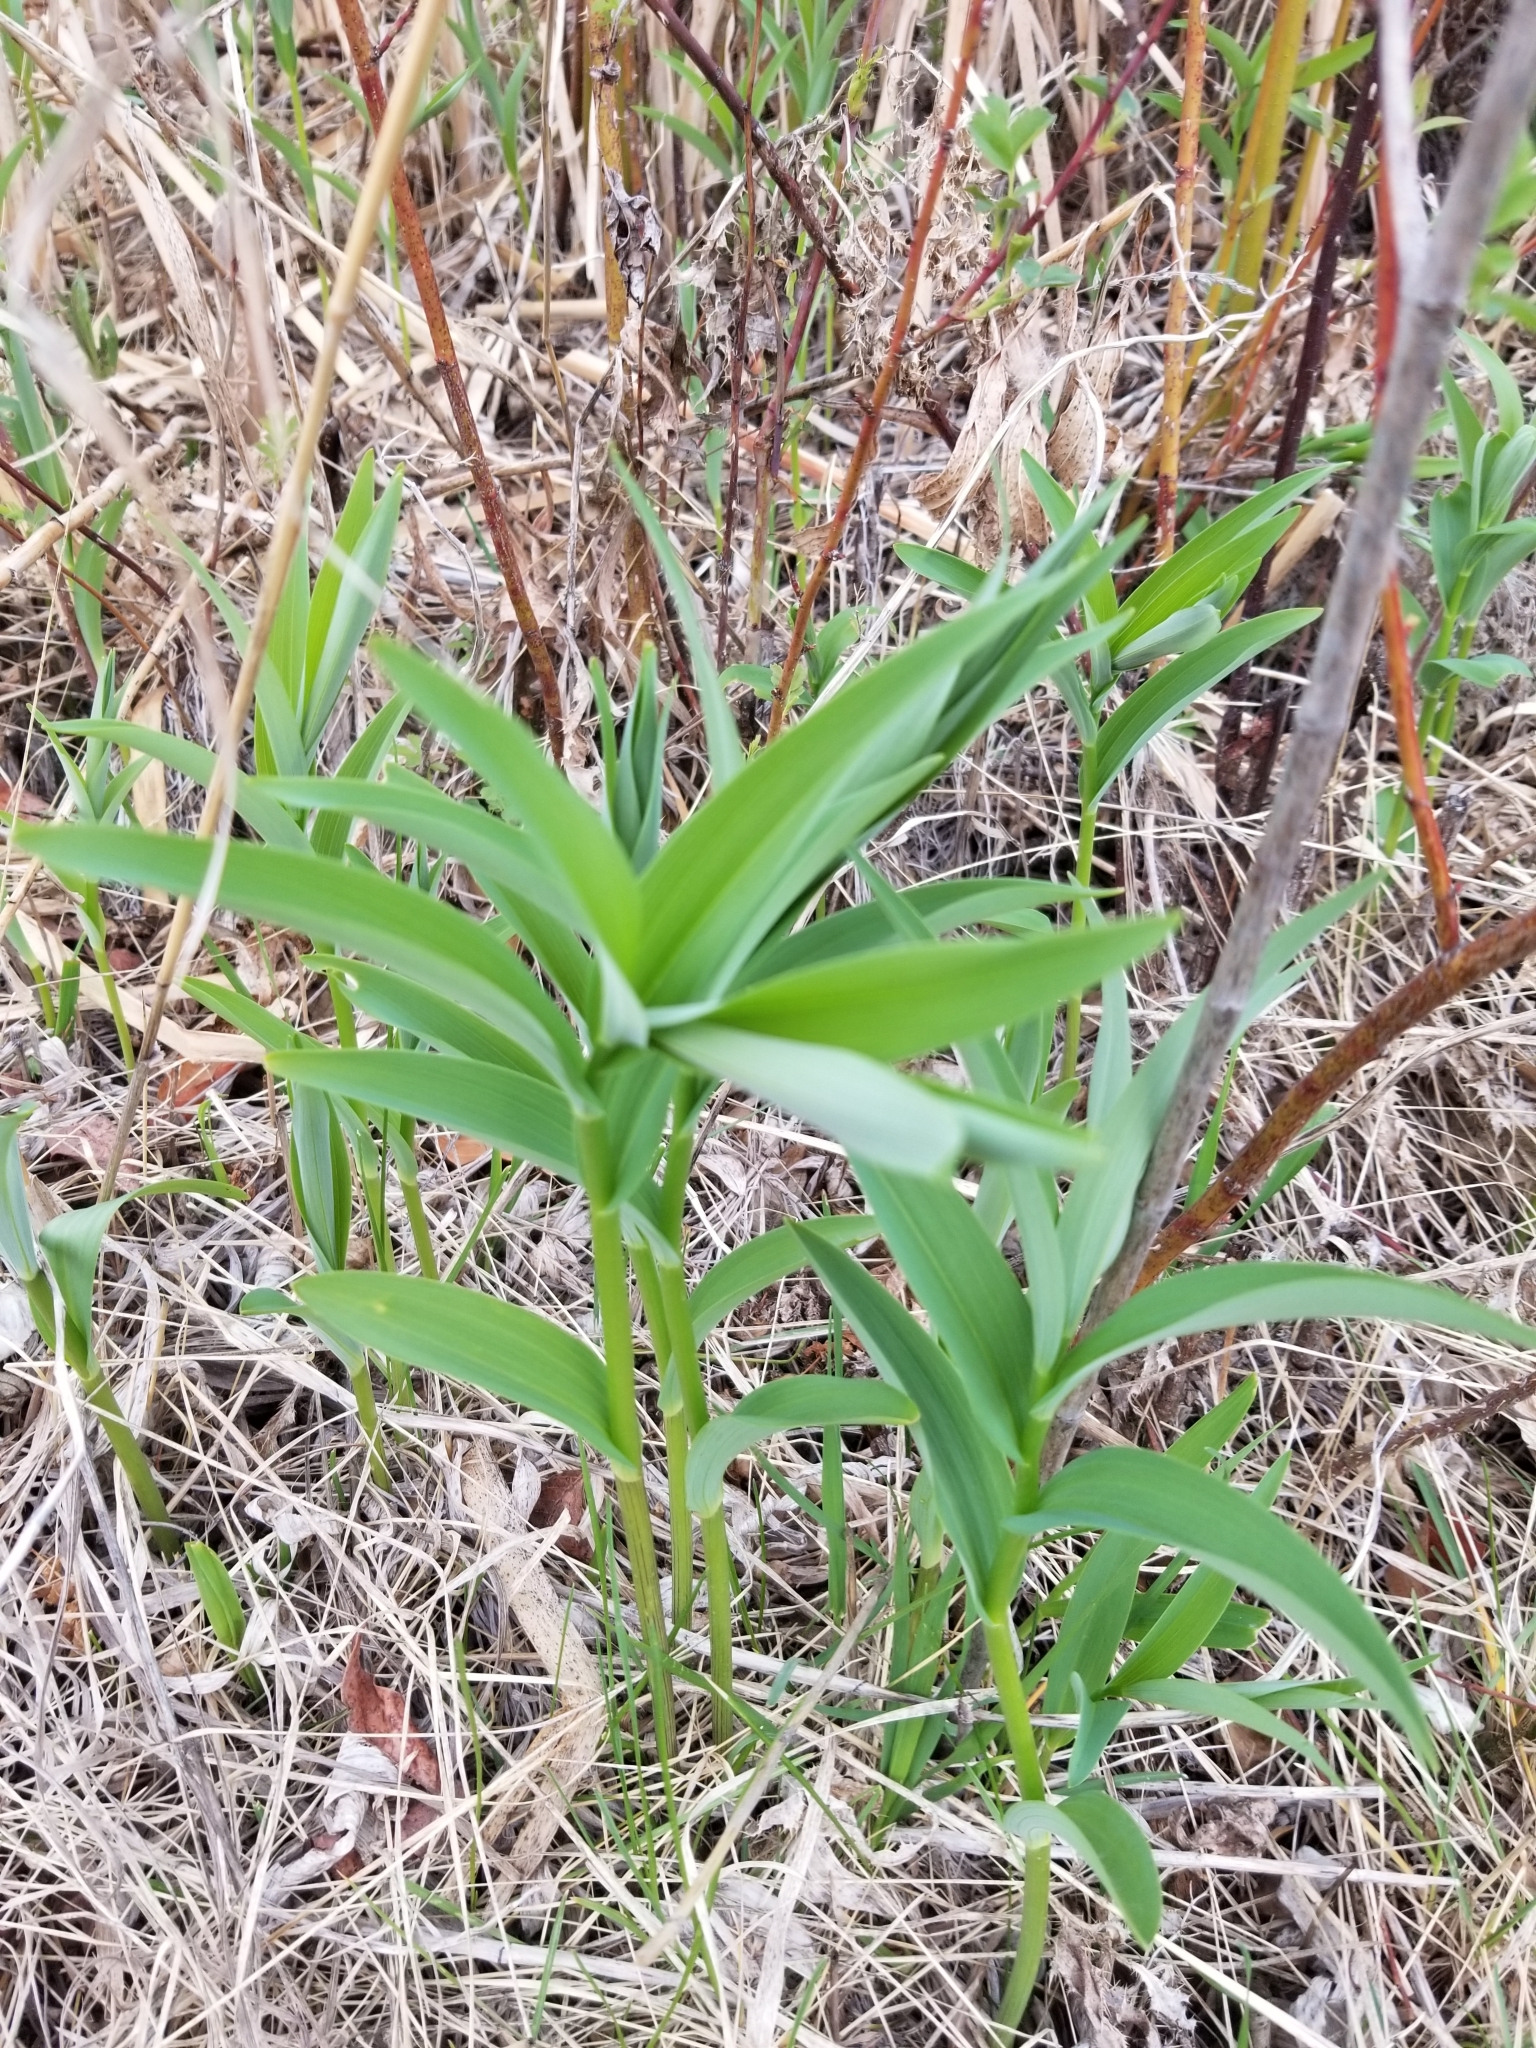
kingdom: Plantae
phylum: Tracheophyta
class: Liliopsida
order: Asparagales
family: Asparagaceae
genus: Maianthemum
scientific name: Maianthemum stellatum
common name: Little false solomon's seal
